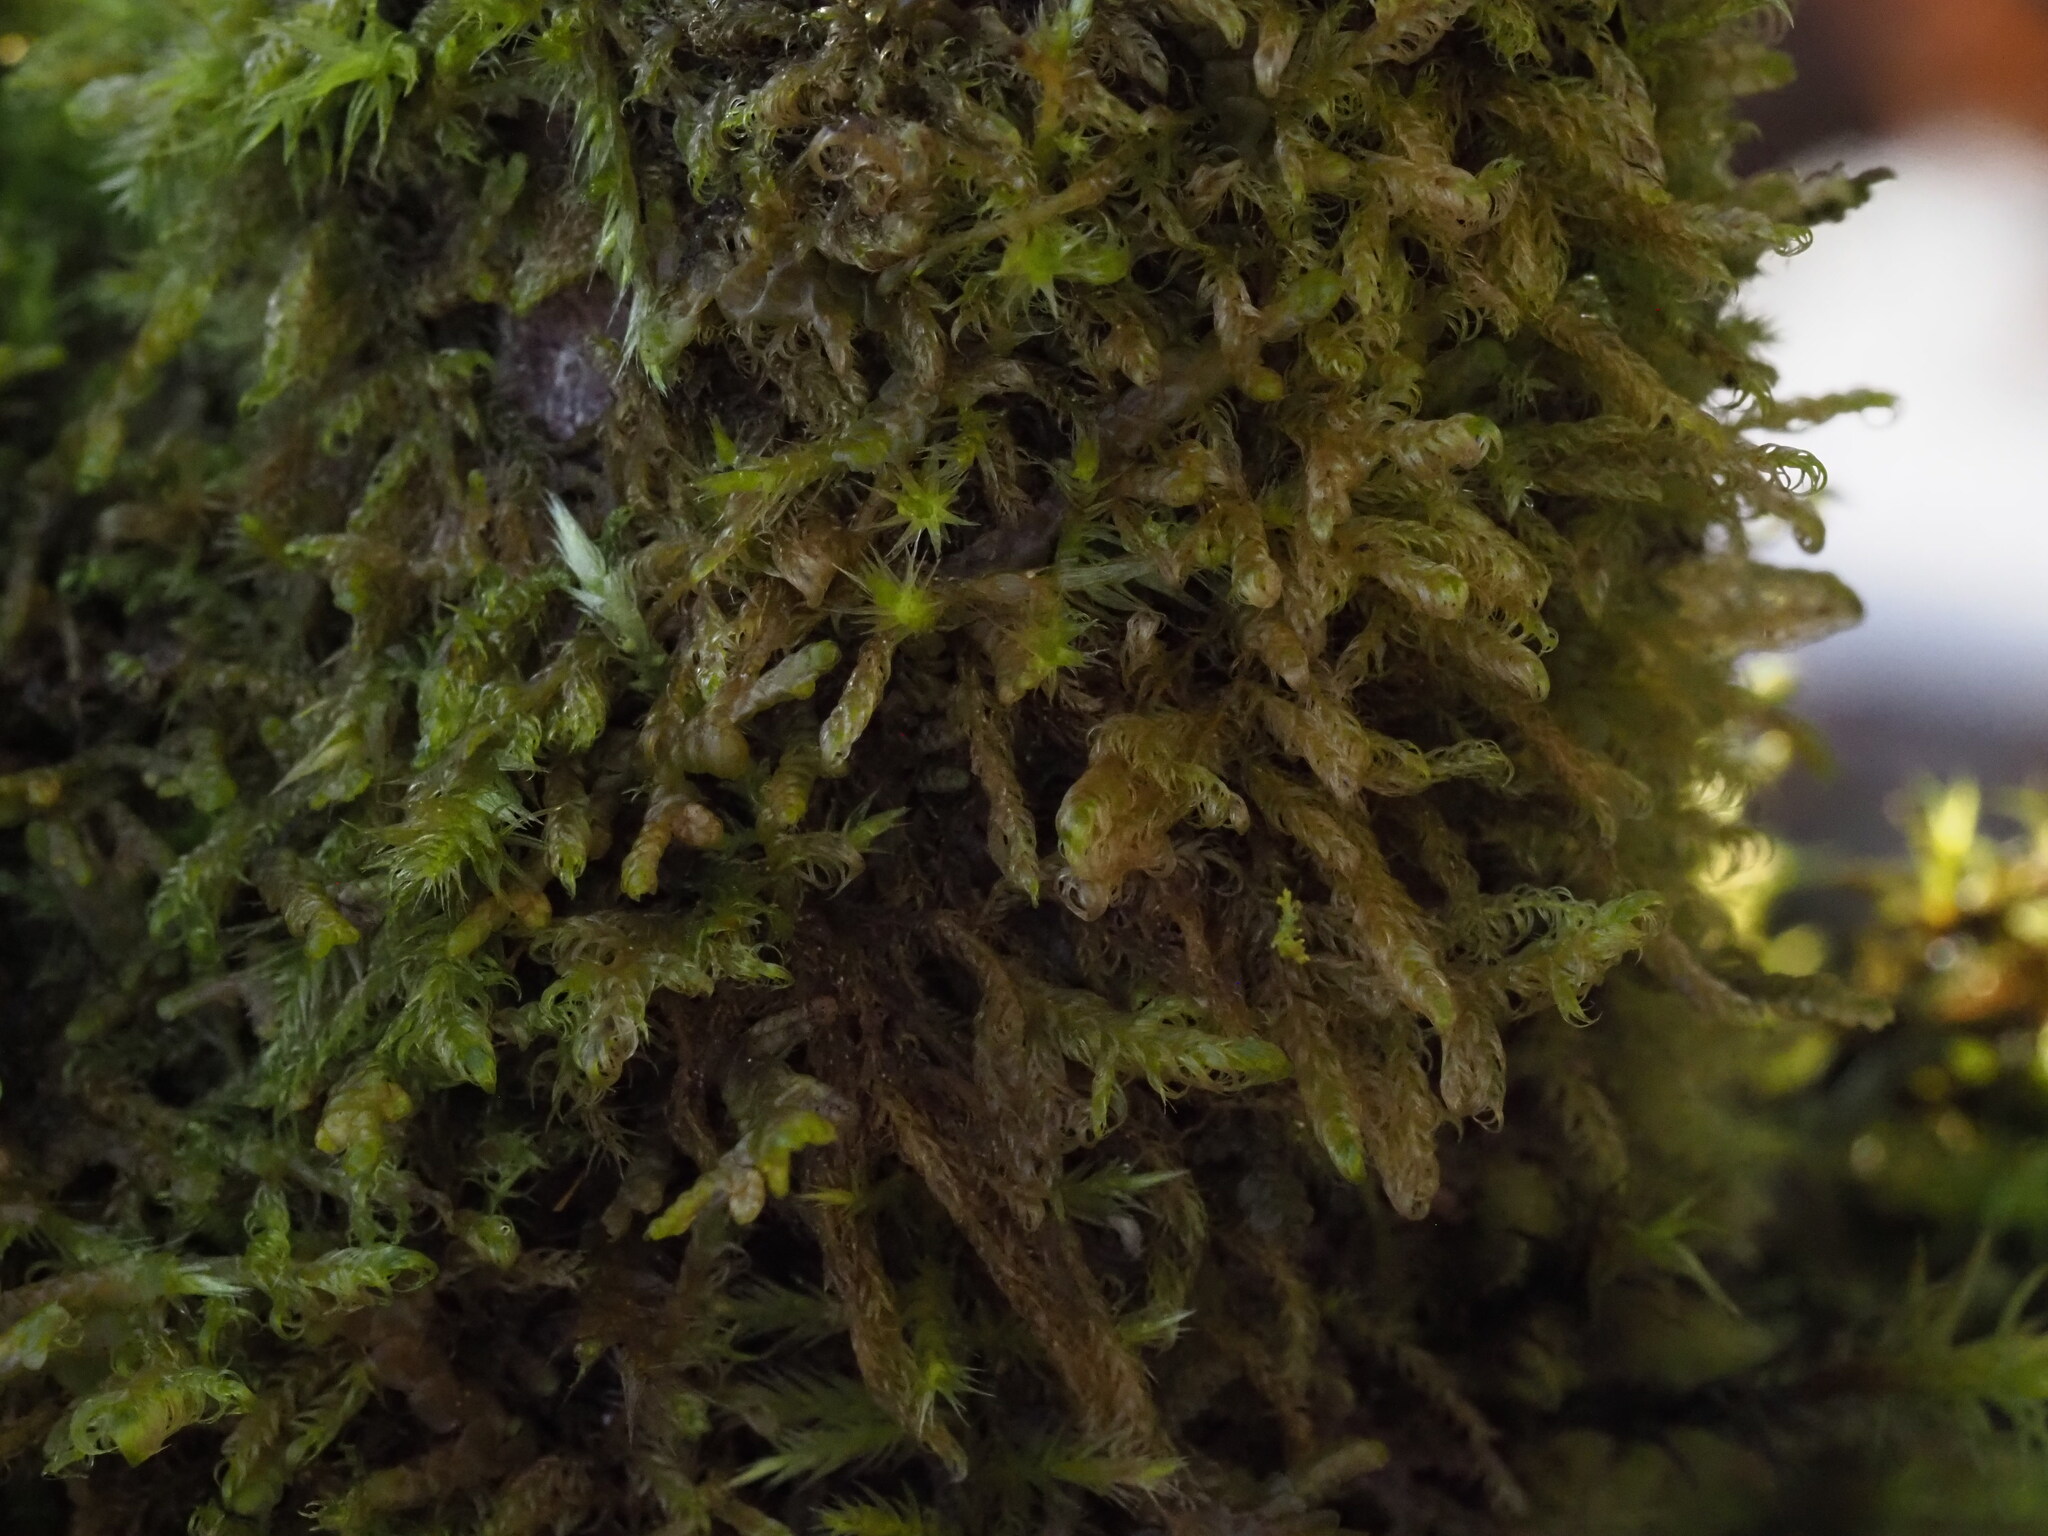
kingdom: Plantae
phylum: Bryophyta
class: Bryopsida
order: Hypnales
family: Scorpidiaceae
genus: Sanionia
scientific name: Sanionia uncinata
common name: Sickle moss
